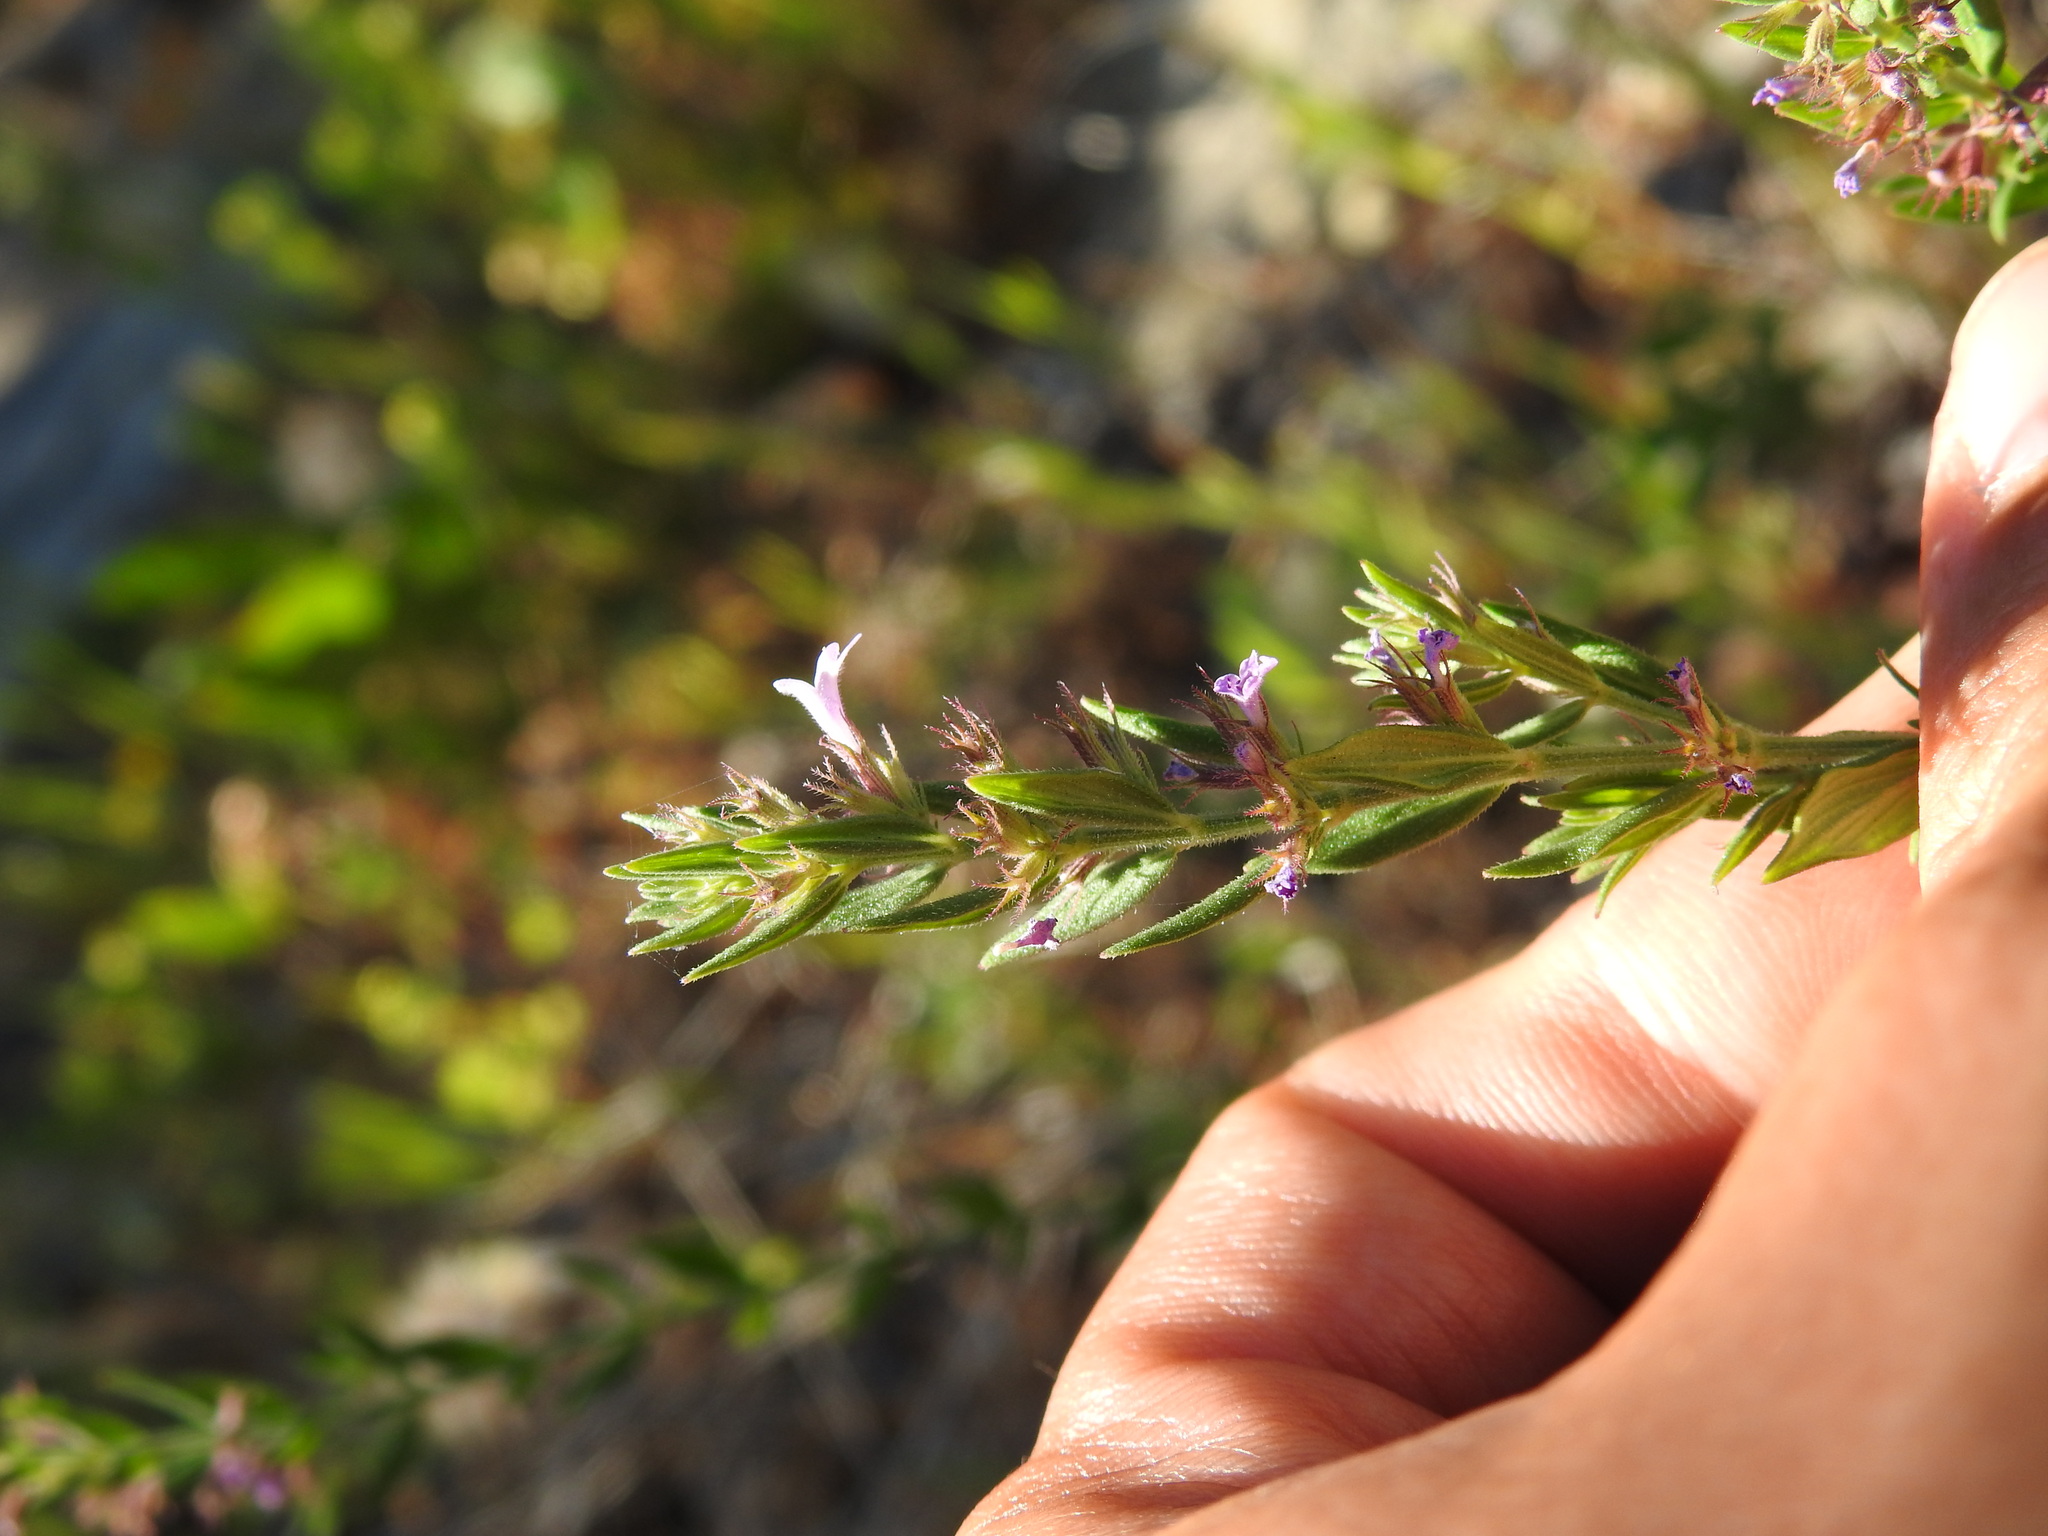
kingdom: Plantae
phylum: Tracheophyta
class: Magnoliopsida
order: Lamiales
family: Lamiaceae
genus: Micromeria
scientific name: Micromeria graeca
